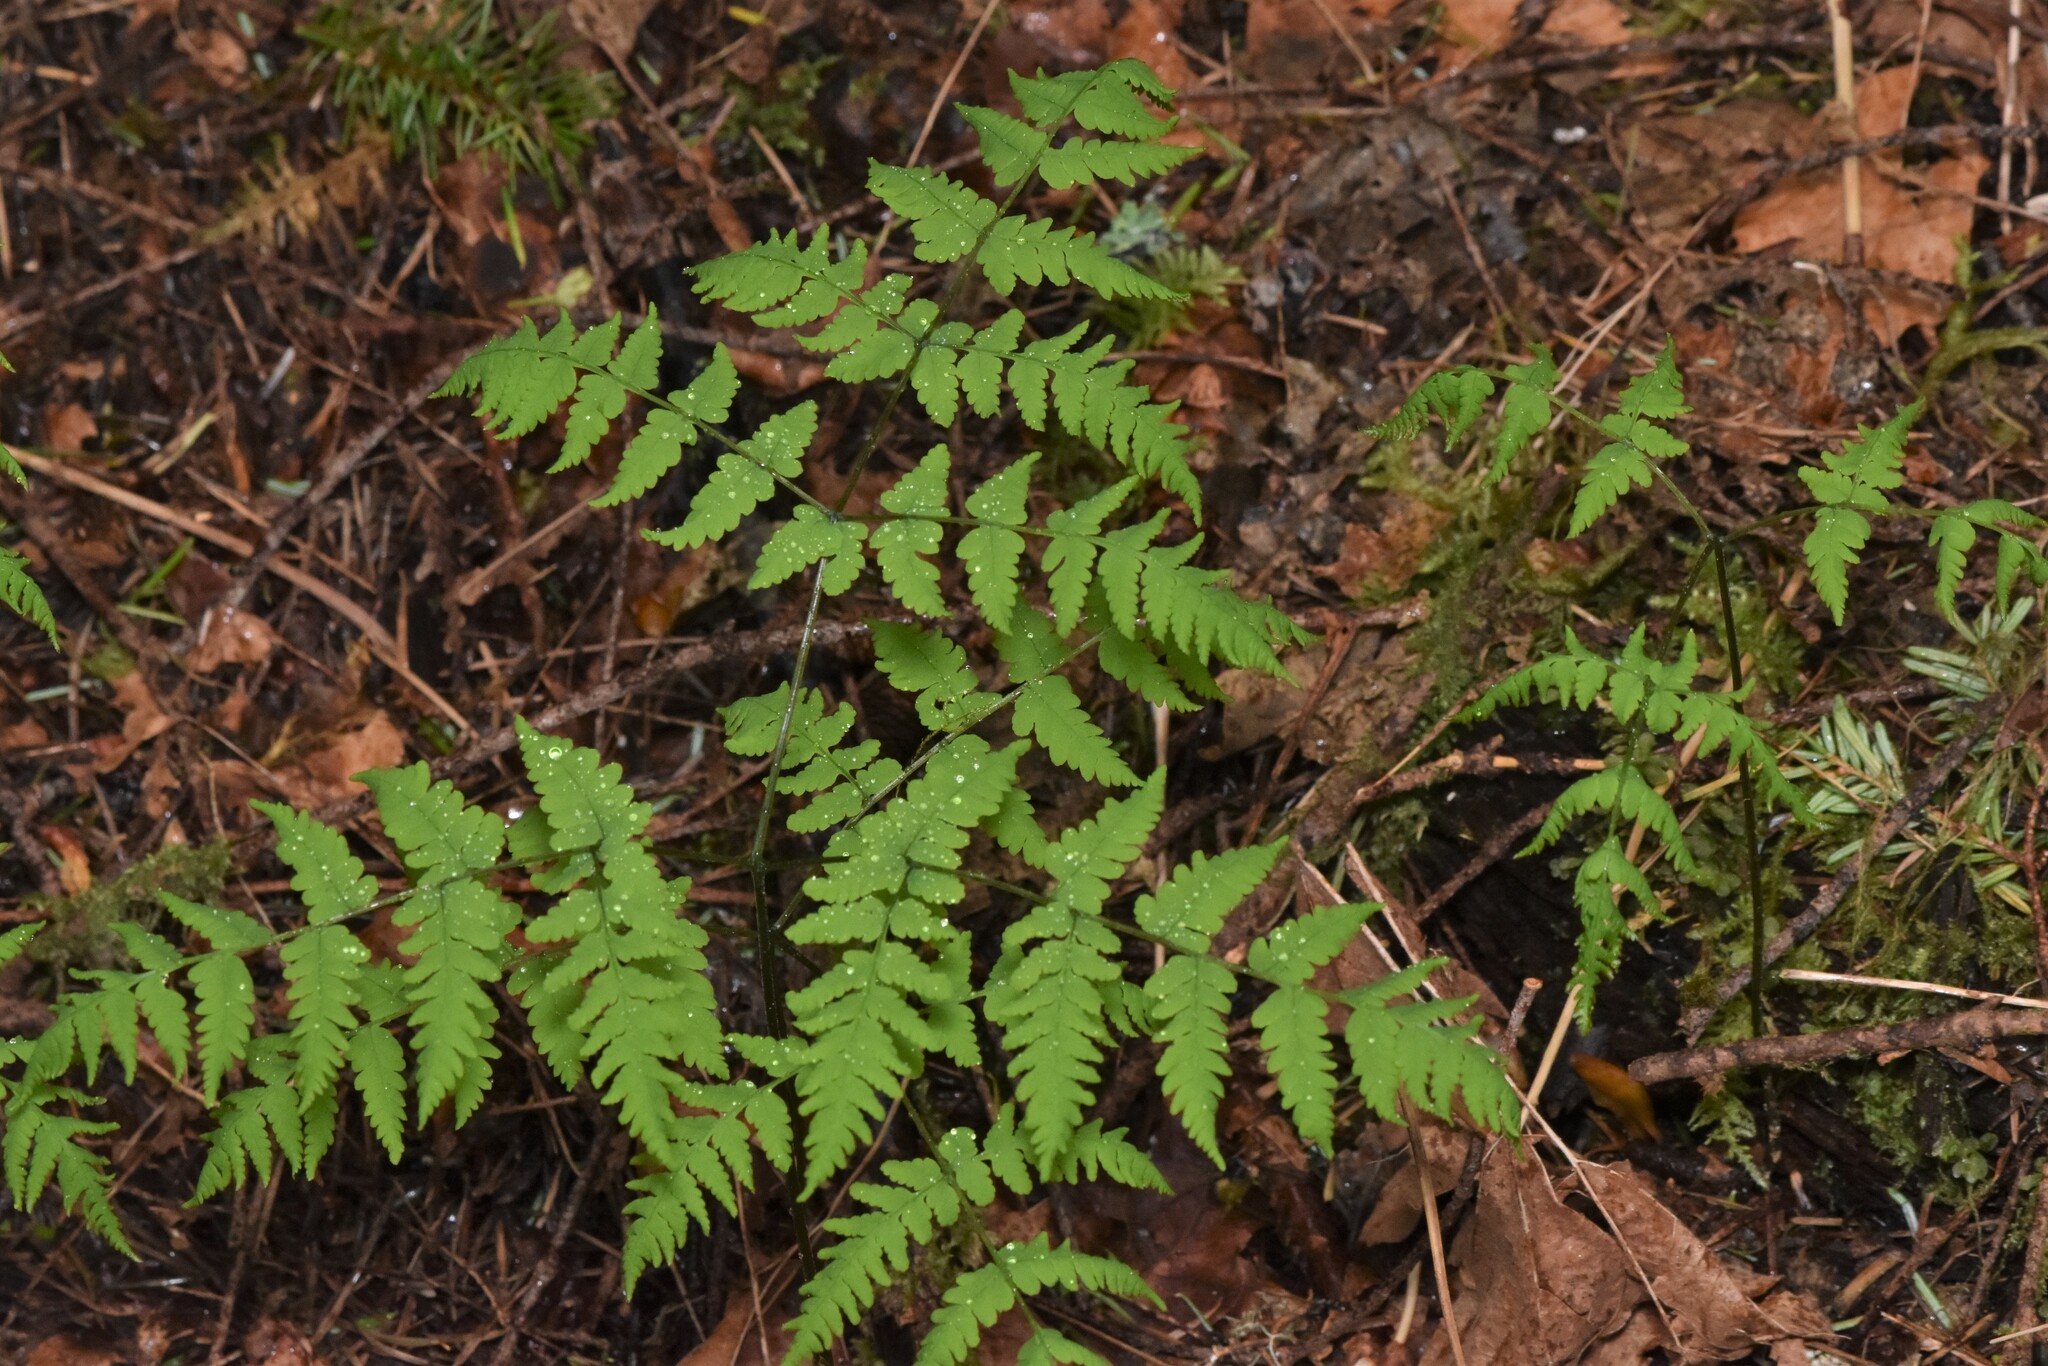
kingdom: Plantae
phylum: Tracheophyta
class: Polypodiopsida
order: Polypodiales
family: Cystopteridaceae
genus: Gymnocarpium
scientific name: Gymnocarpium disjunctum
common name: Western oak fern
